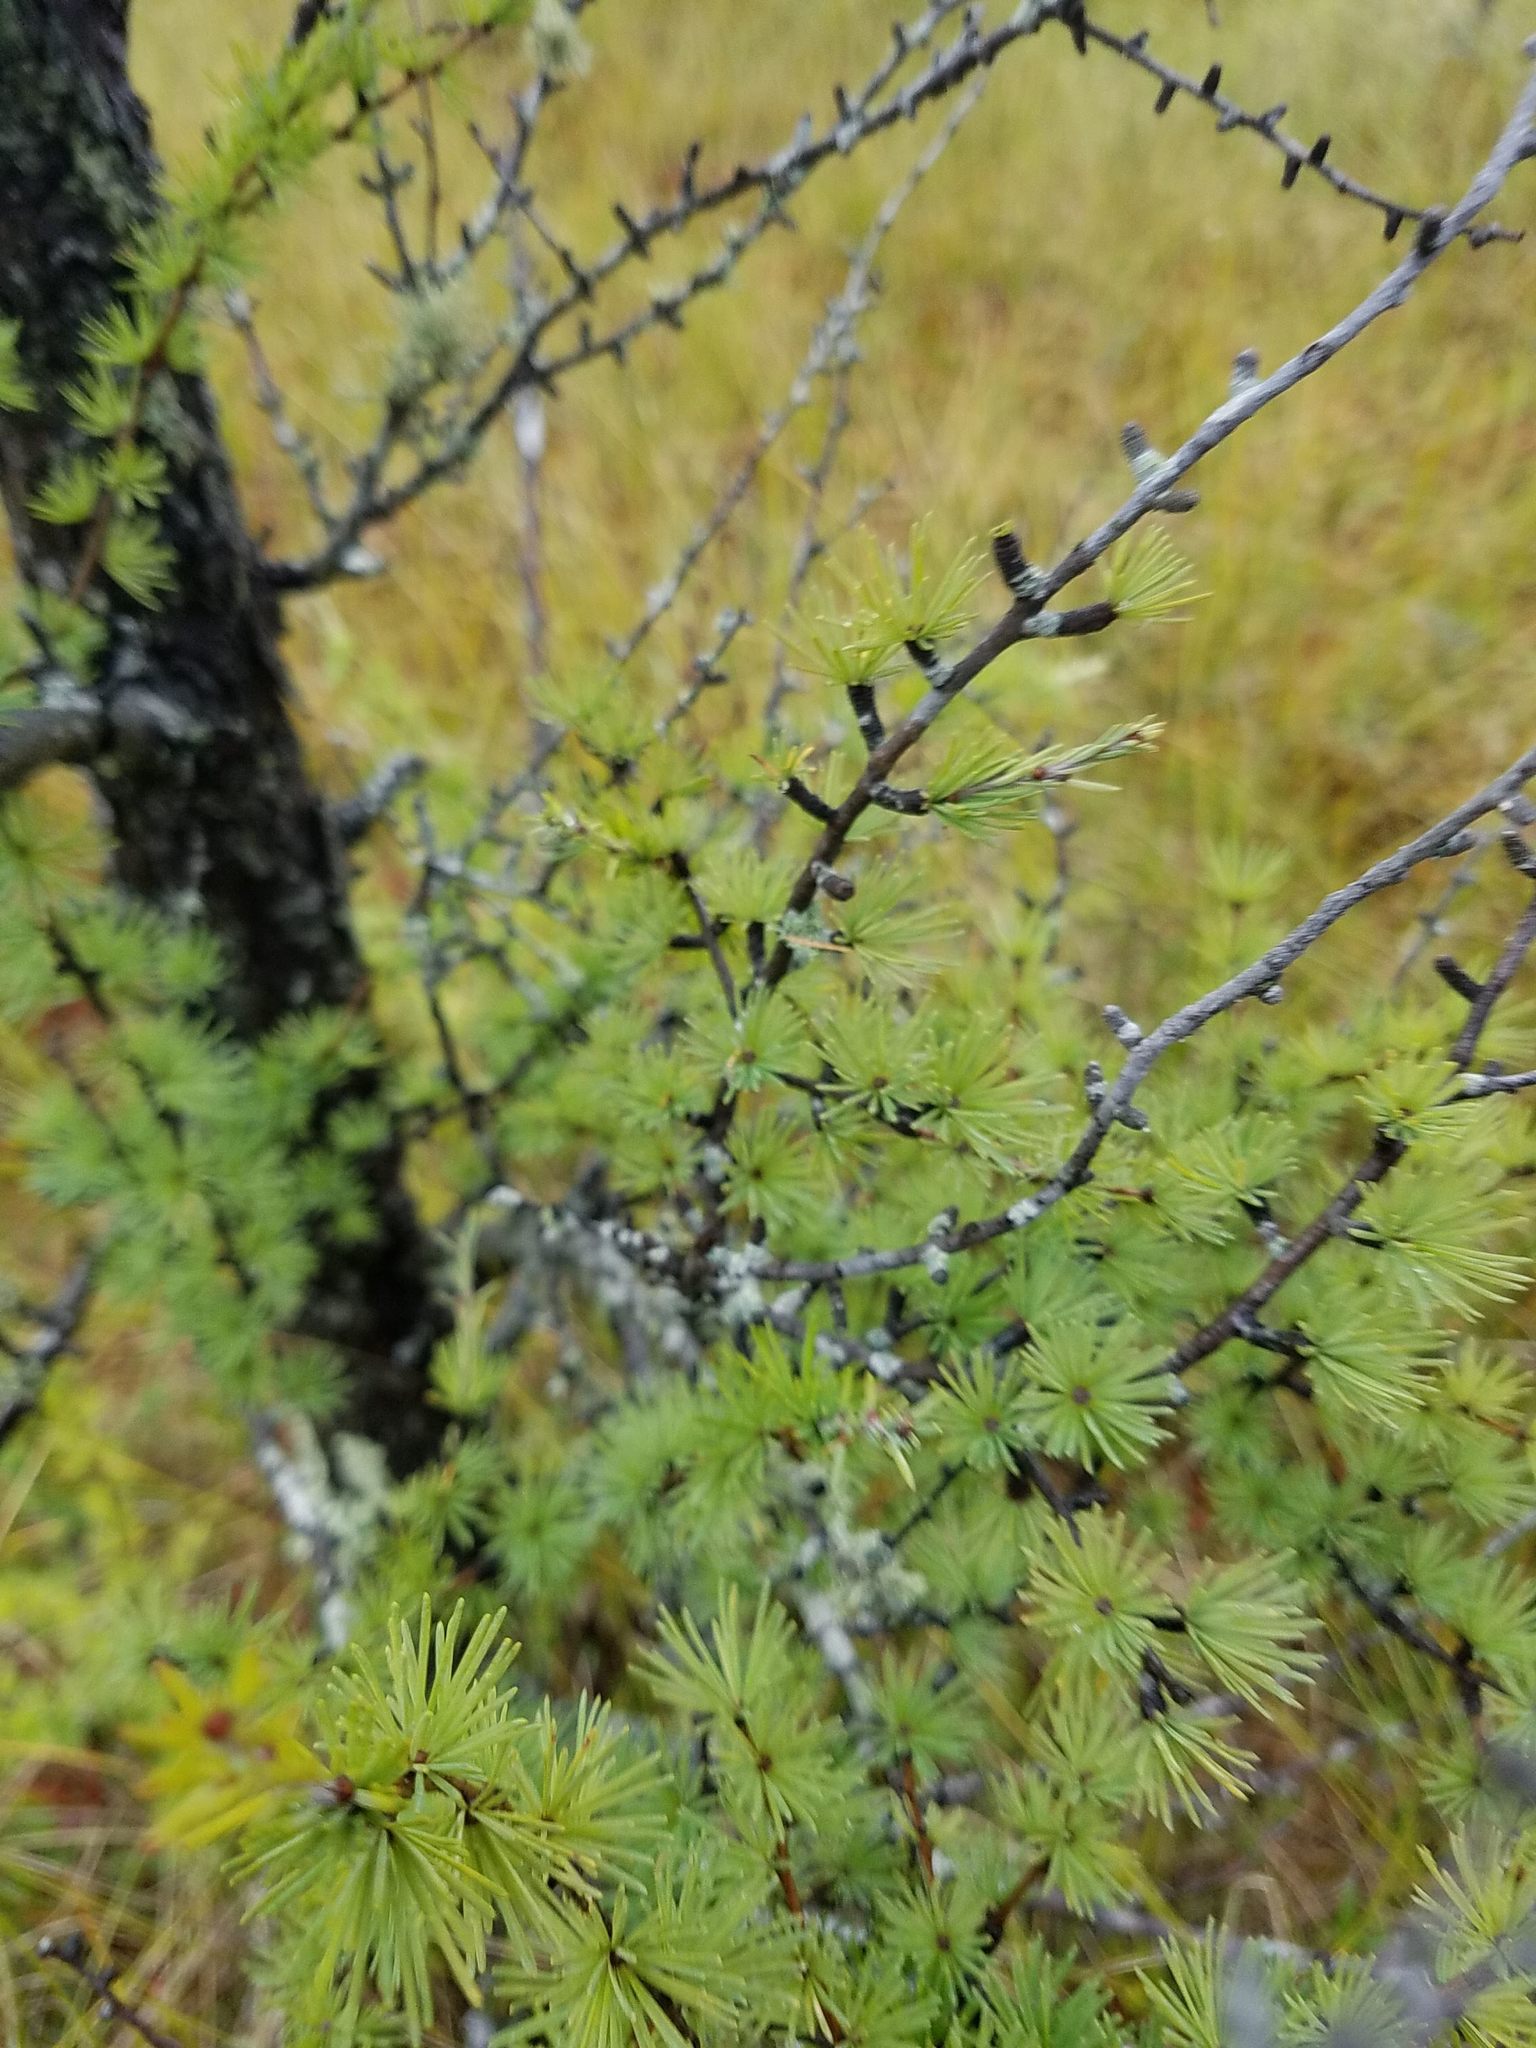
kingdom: Plantae
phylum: Tracheophyta
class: Pinopsida
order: Pinales
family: Pinaceae
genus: Larix
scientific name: Larix laricina
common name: American larch
